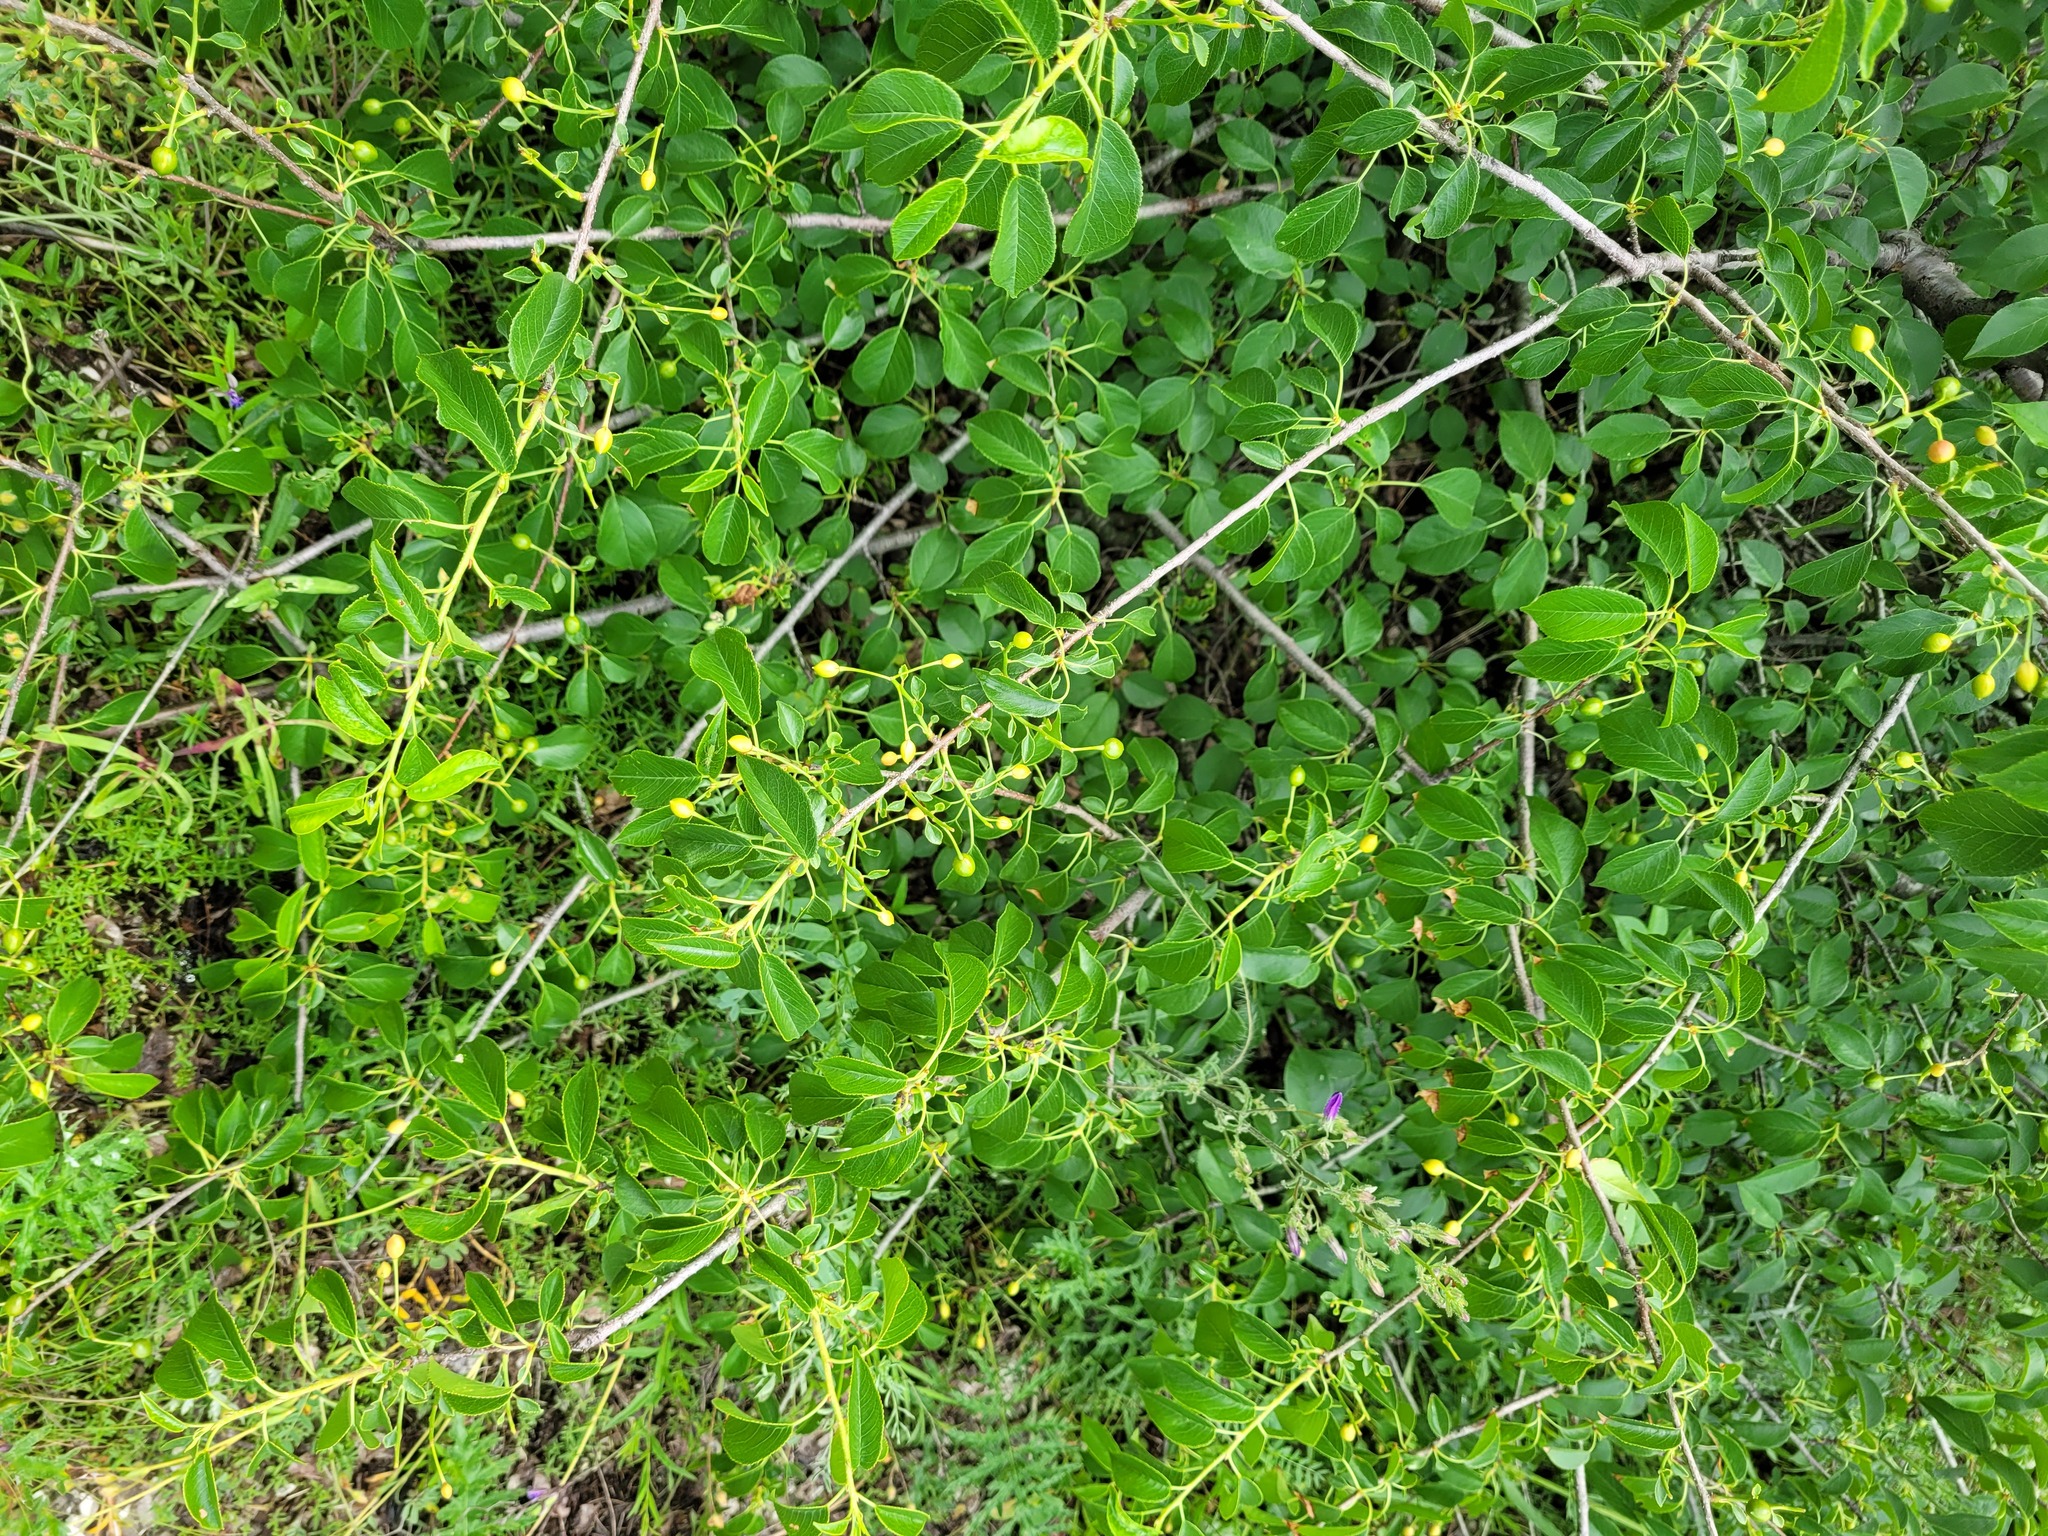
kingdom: Plantae
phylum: Tracheophyta
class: Magnoliopsida
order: Rosales
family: Rosaceae
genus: Prunus
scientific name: Prunus mahaleb
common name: Mahaleb cherry
